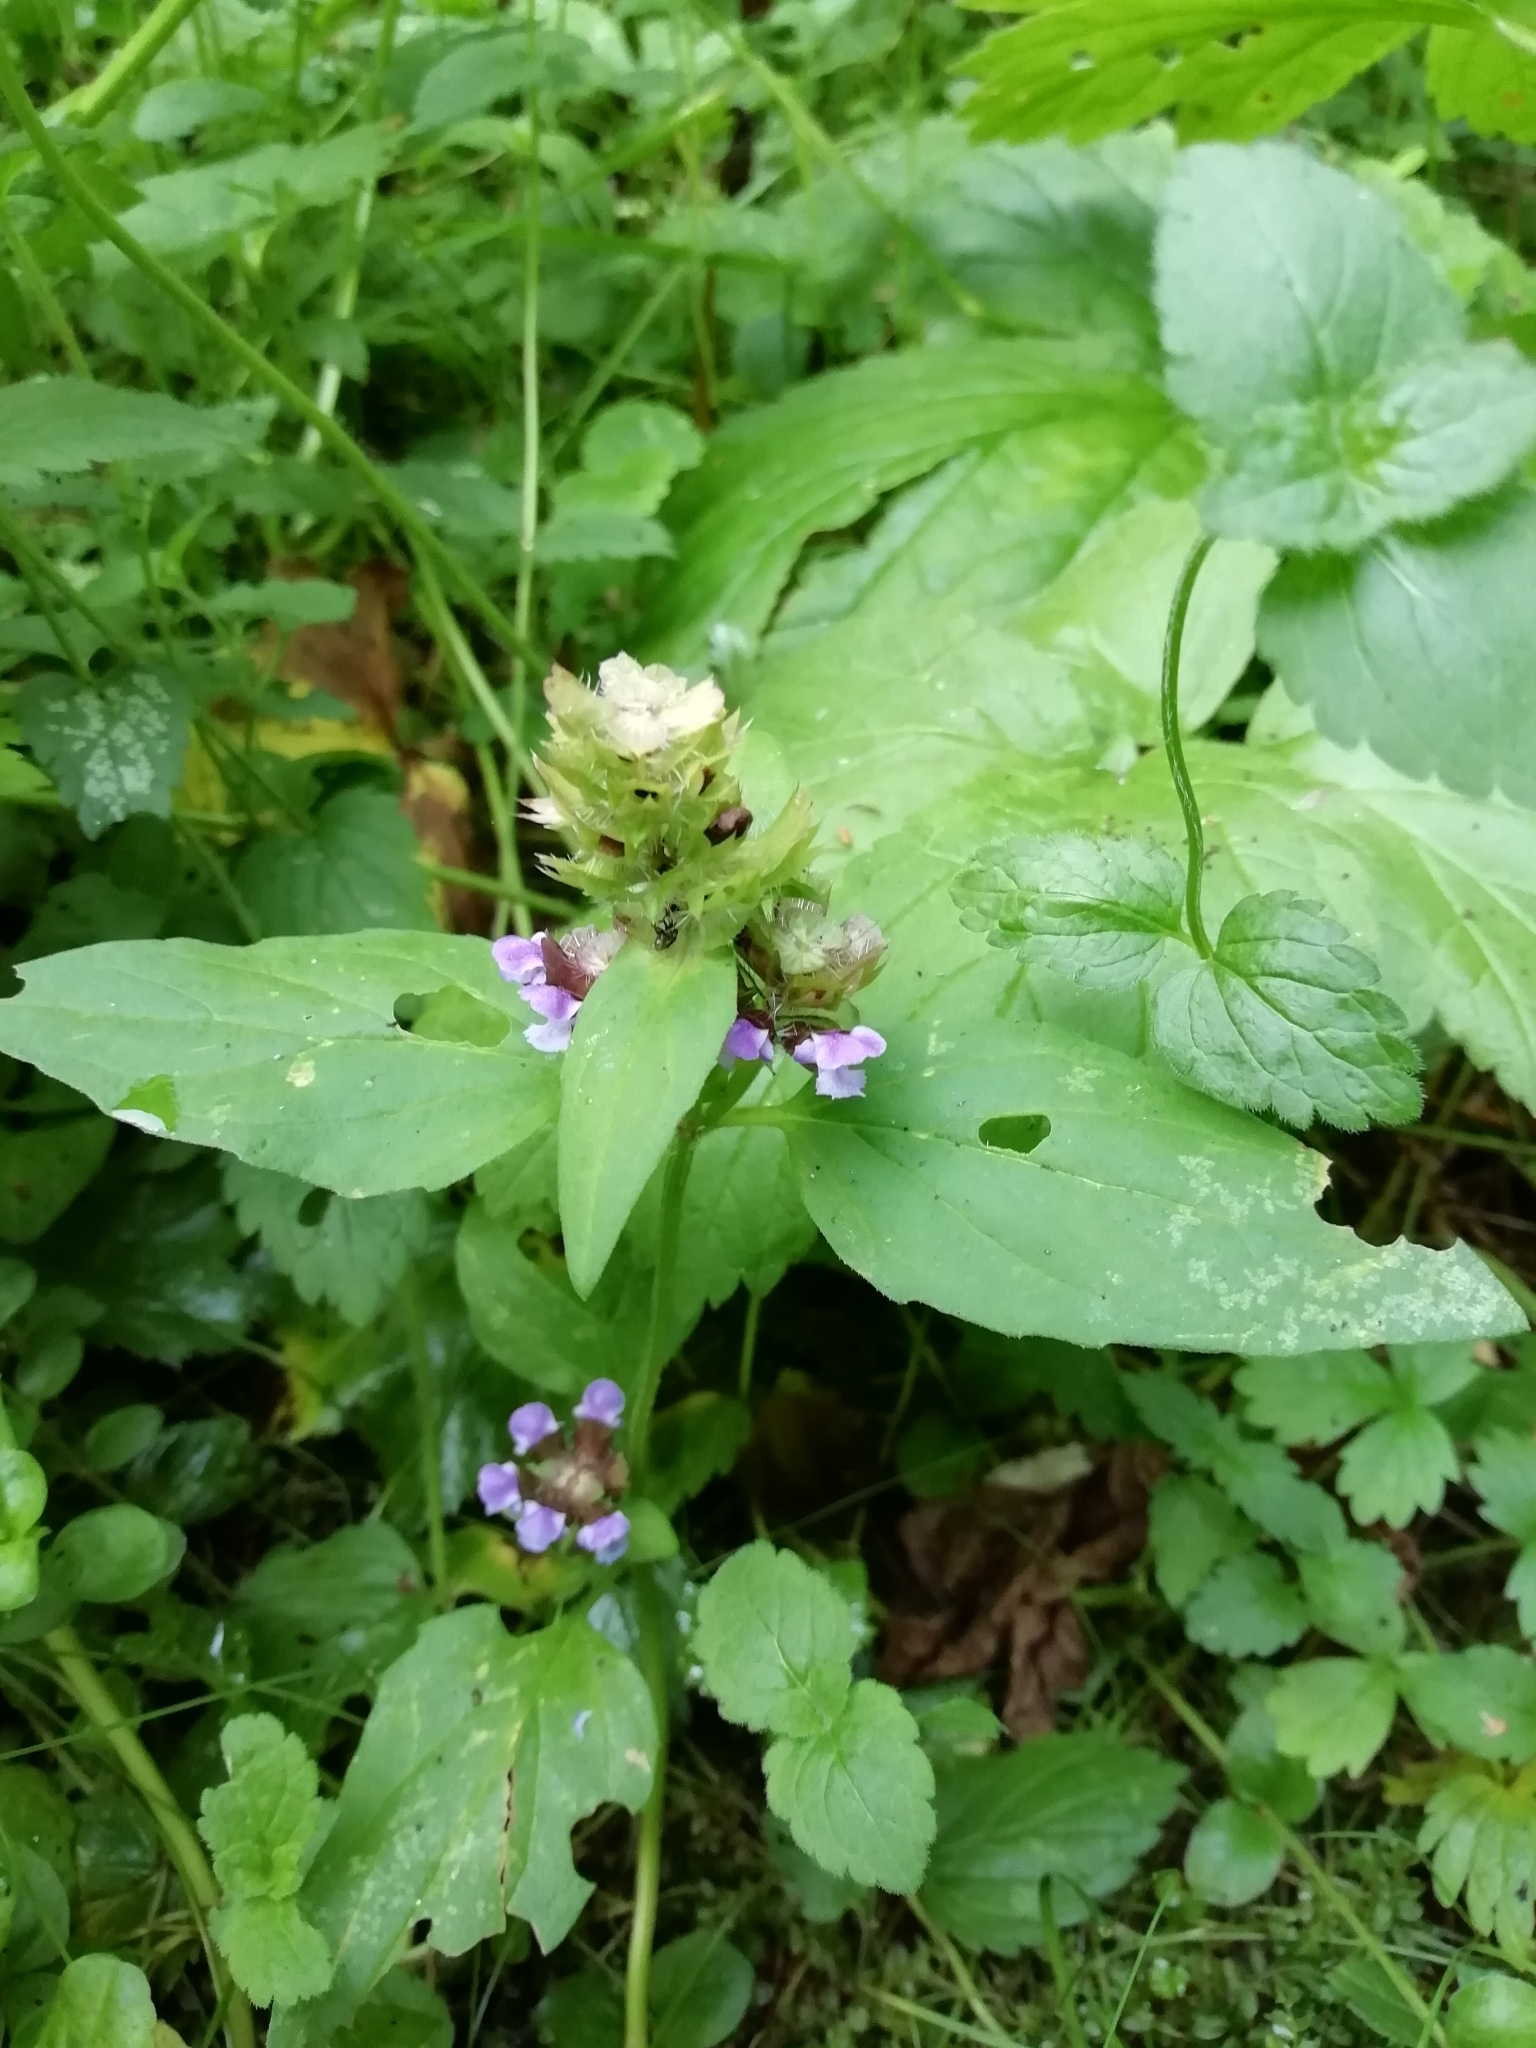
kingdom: Plantae
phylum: Tracheophyta
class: Magnoliopsida
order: Lamiales
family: Lamiaceae
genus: Prunella
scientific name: Prunella vulgaris
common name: Heal-all
